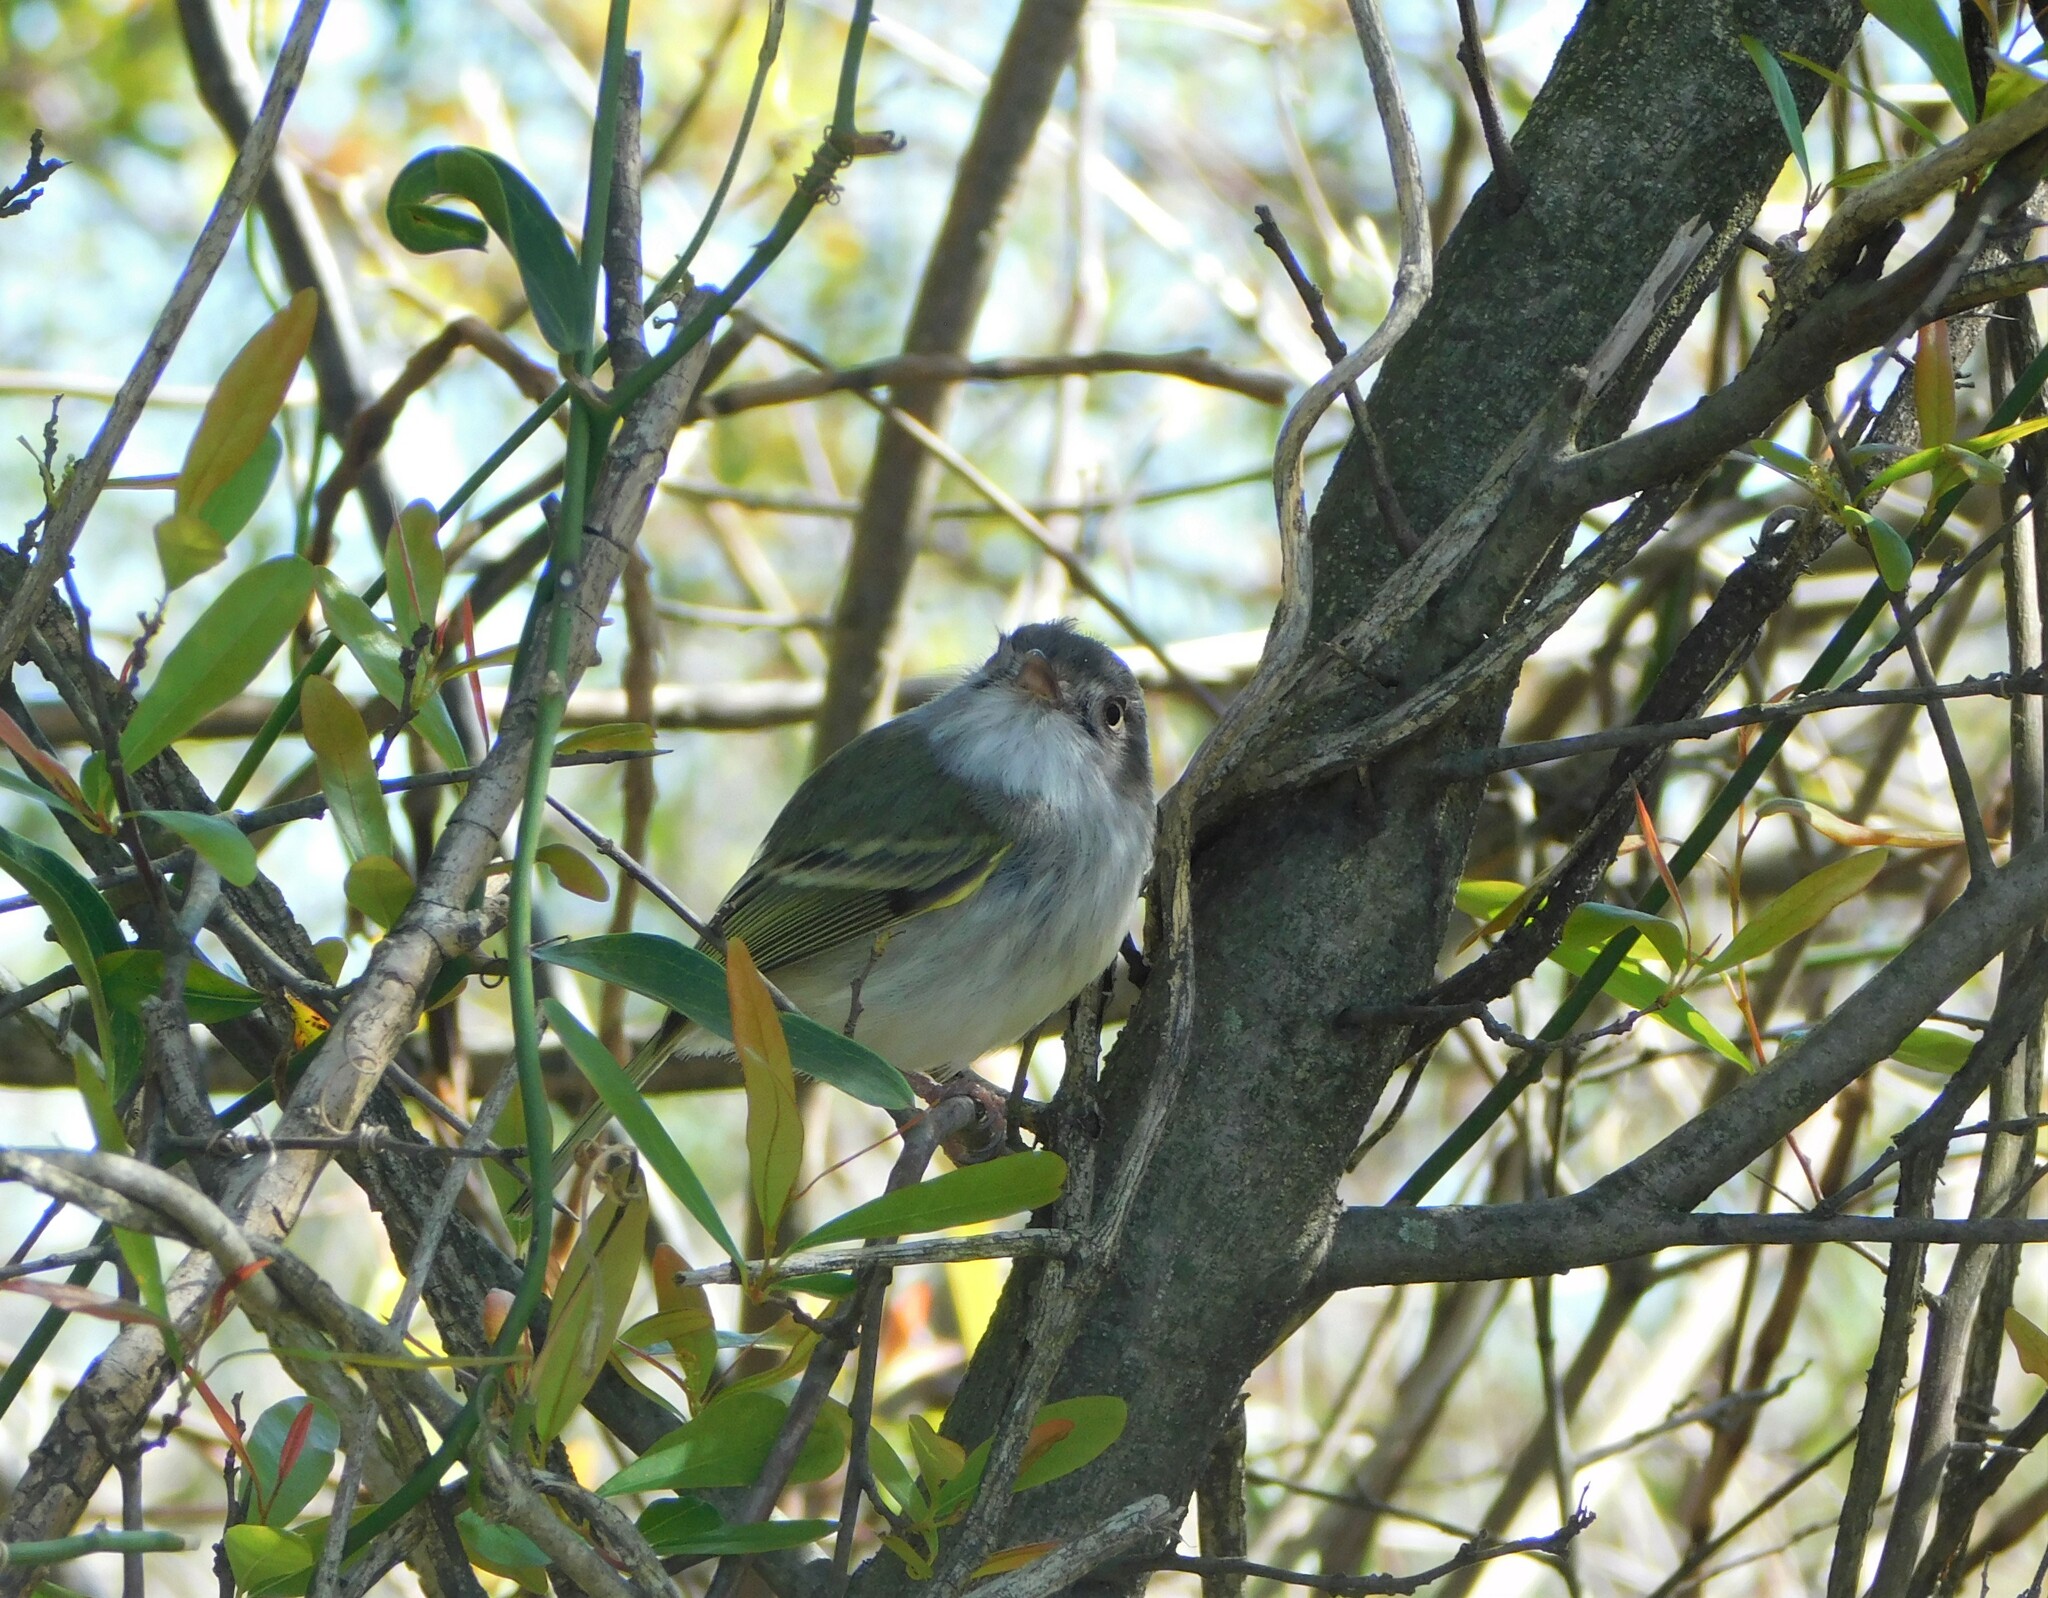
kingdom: Animalia
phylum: Chordata
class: Aves
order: Passeriformes
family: Tyrannidae
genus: Hemitriccus
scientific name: Hemitriccus margaritaceiventer
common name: Pearly-vented tody-tyrant
